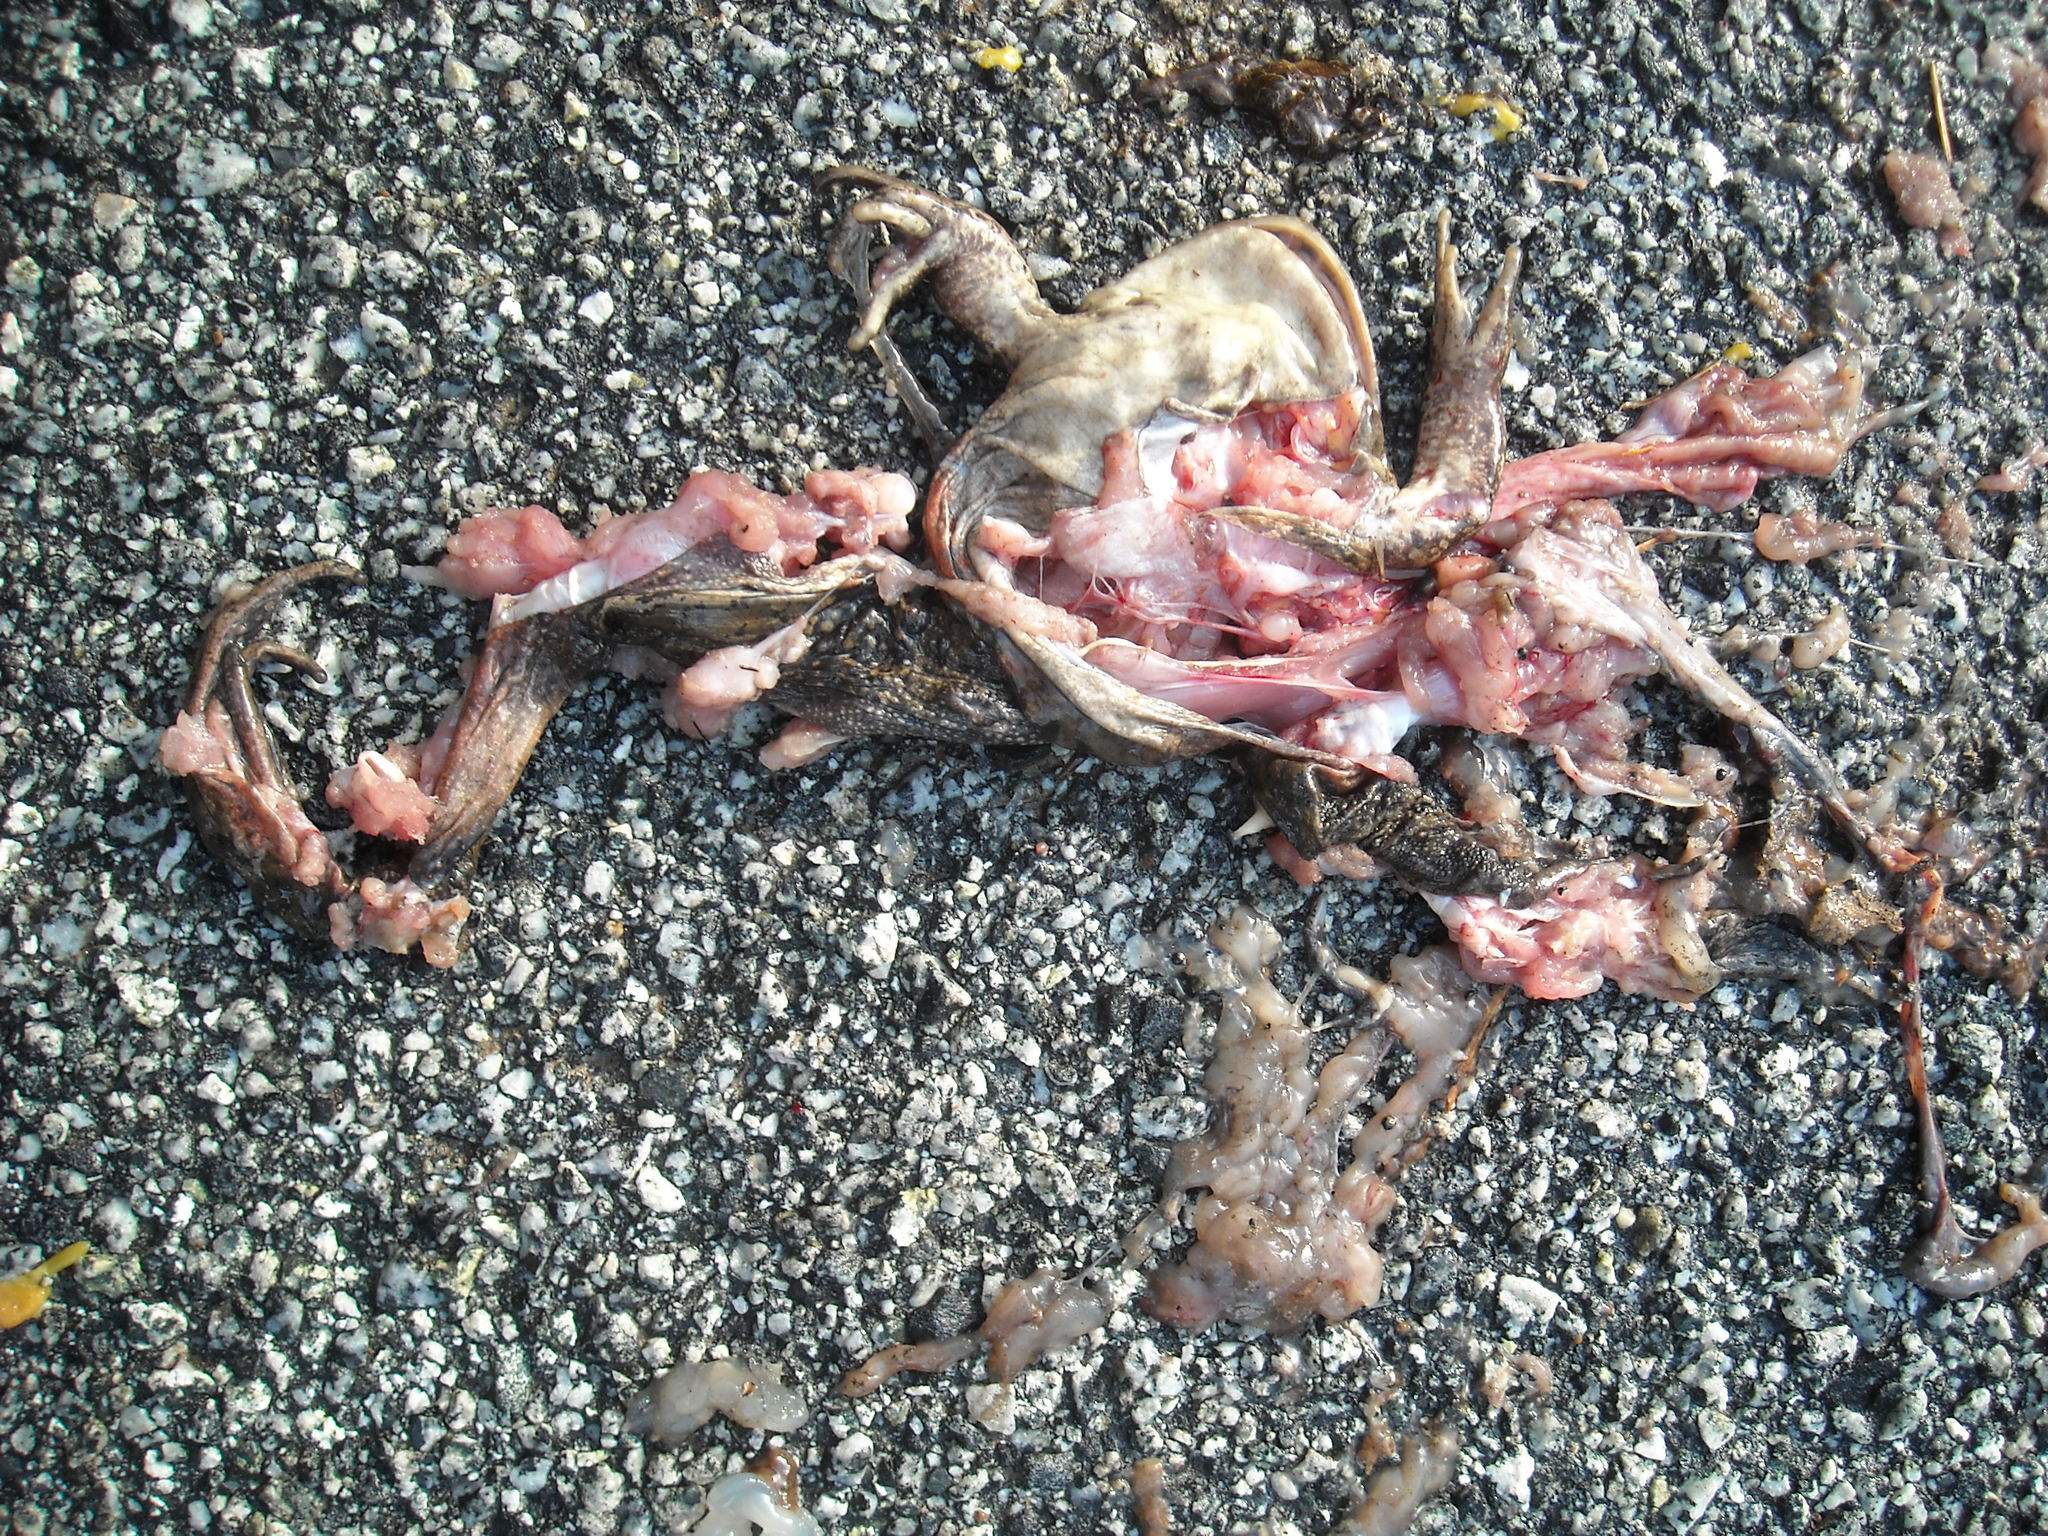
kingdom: Animalia
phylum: Chordata
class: Amphibia
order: Anura
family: Ranidae
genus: Rana
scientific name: Rana draytonii
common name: California red-legged frog
